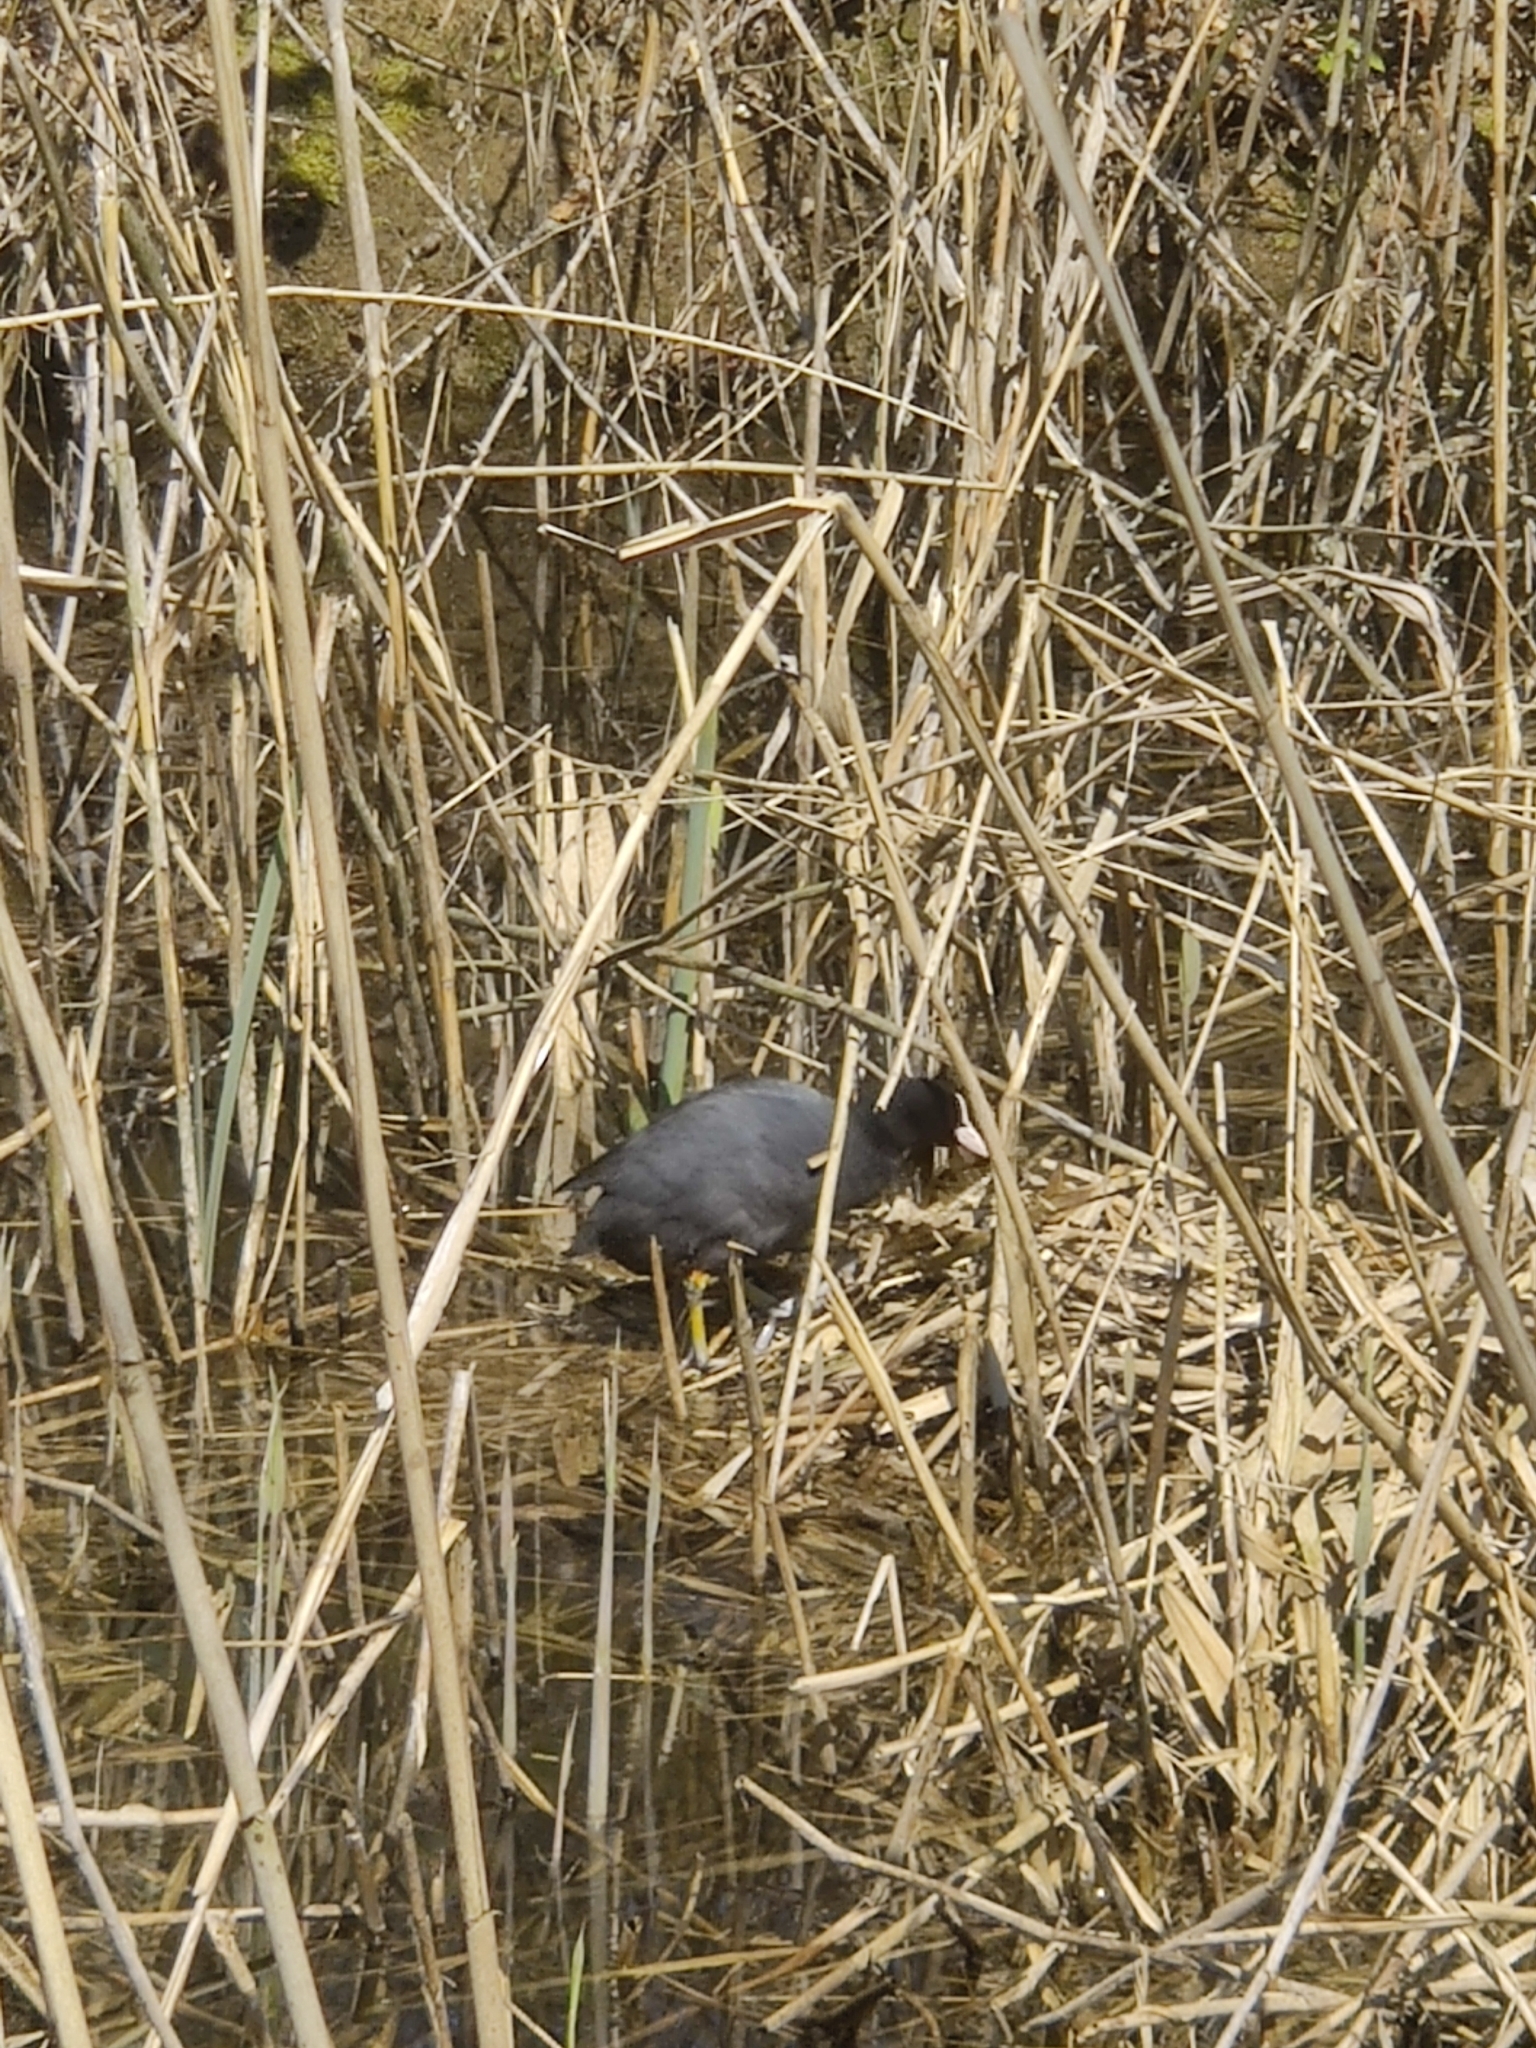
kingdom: Animalia
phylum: Chordata
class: Aves
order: Gruiformes
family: Rallidae
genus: Fulica
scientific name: Fulica atra
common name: Eurasian coot
